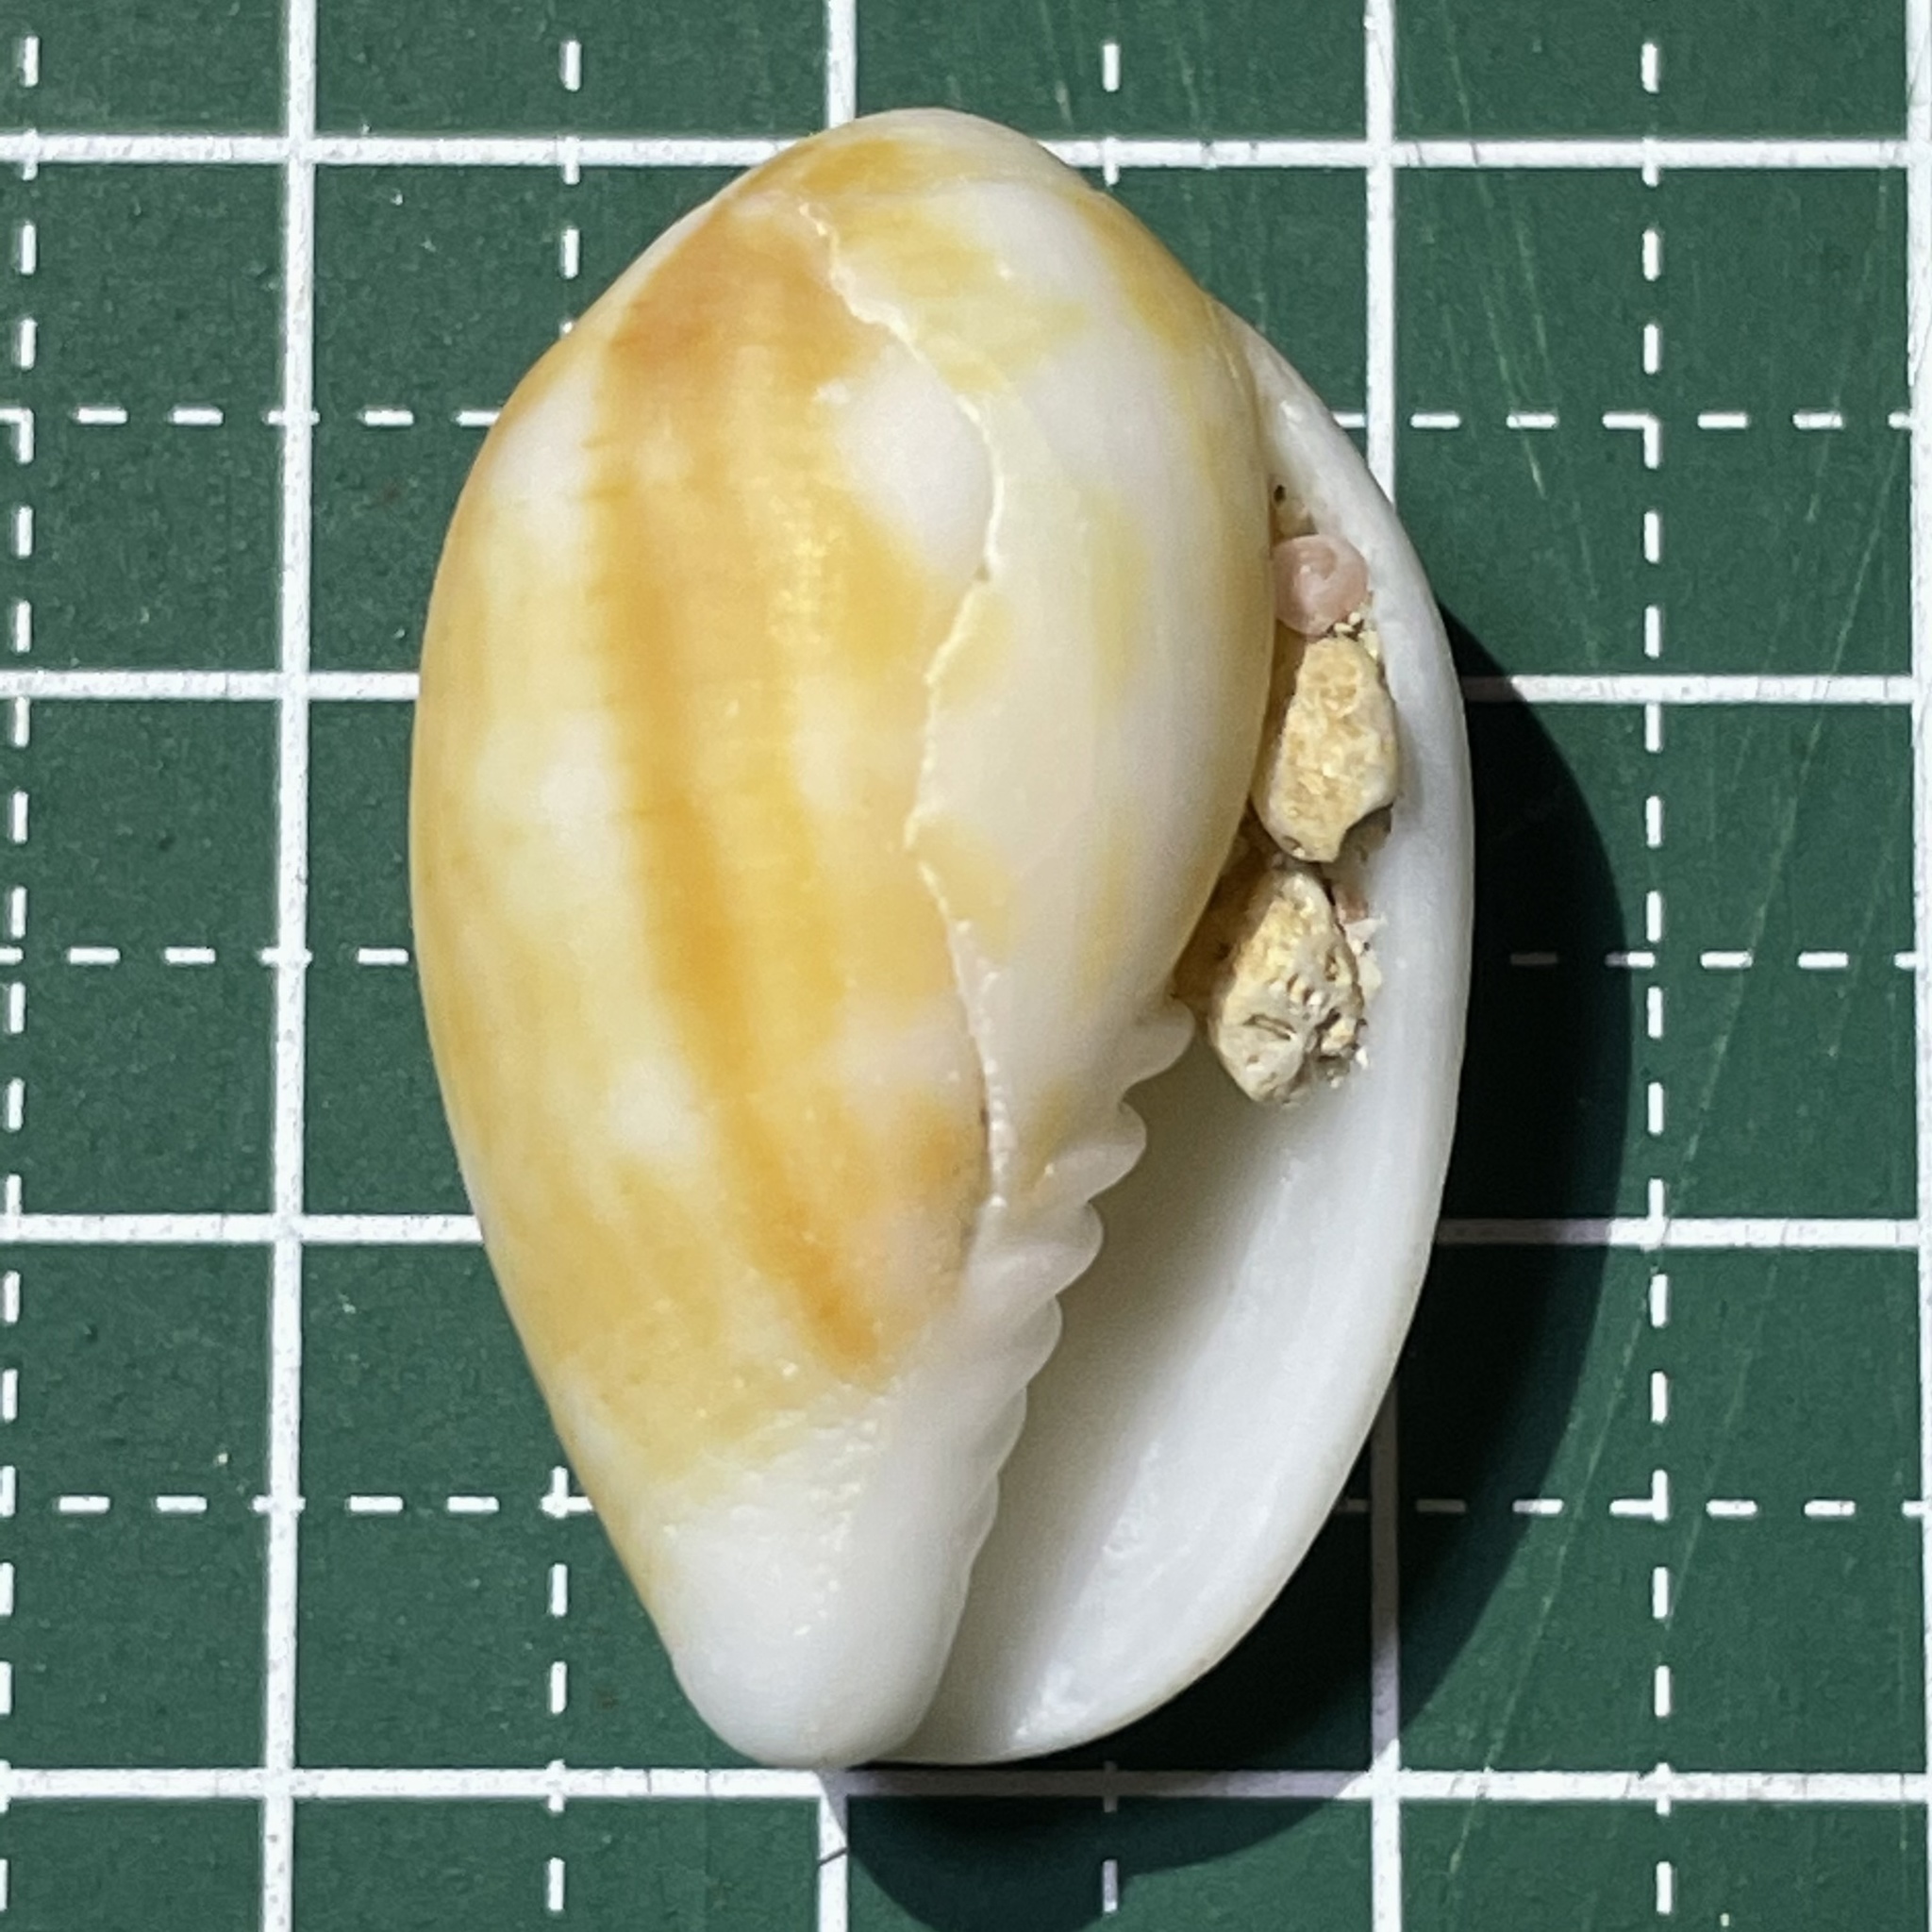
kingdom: Animalia
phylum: Mollusca
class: Gastropoda
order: Neogastropoda
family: Mitridae
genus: Pterygia
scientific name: Pterygia dactylus
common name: Finger miter
